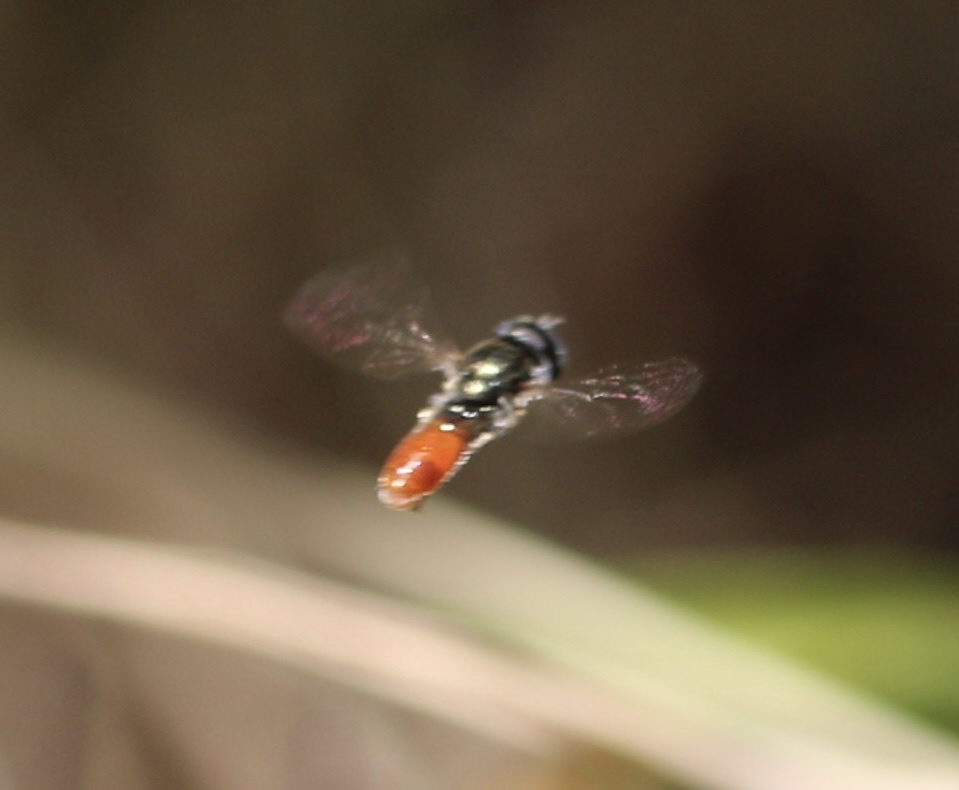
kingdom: Animalia
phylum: Arthropoda
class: Insecta
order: Diptera
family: Syrphidae
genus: Paragus
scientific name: Paragus haemorrhous
